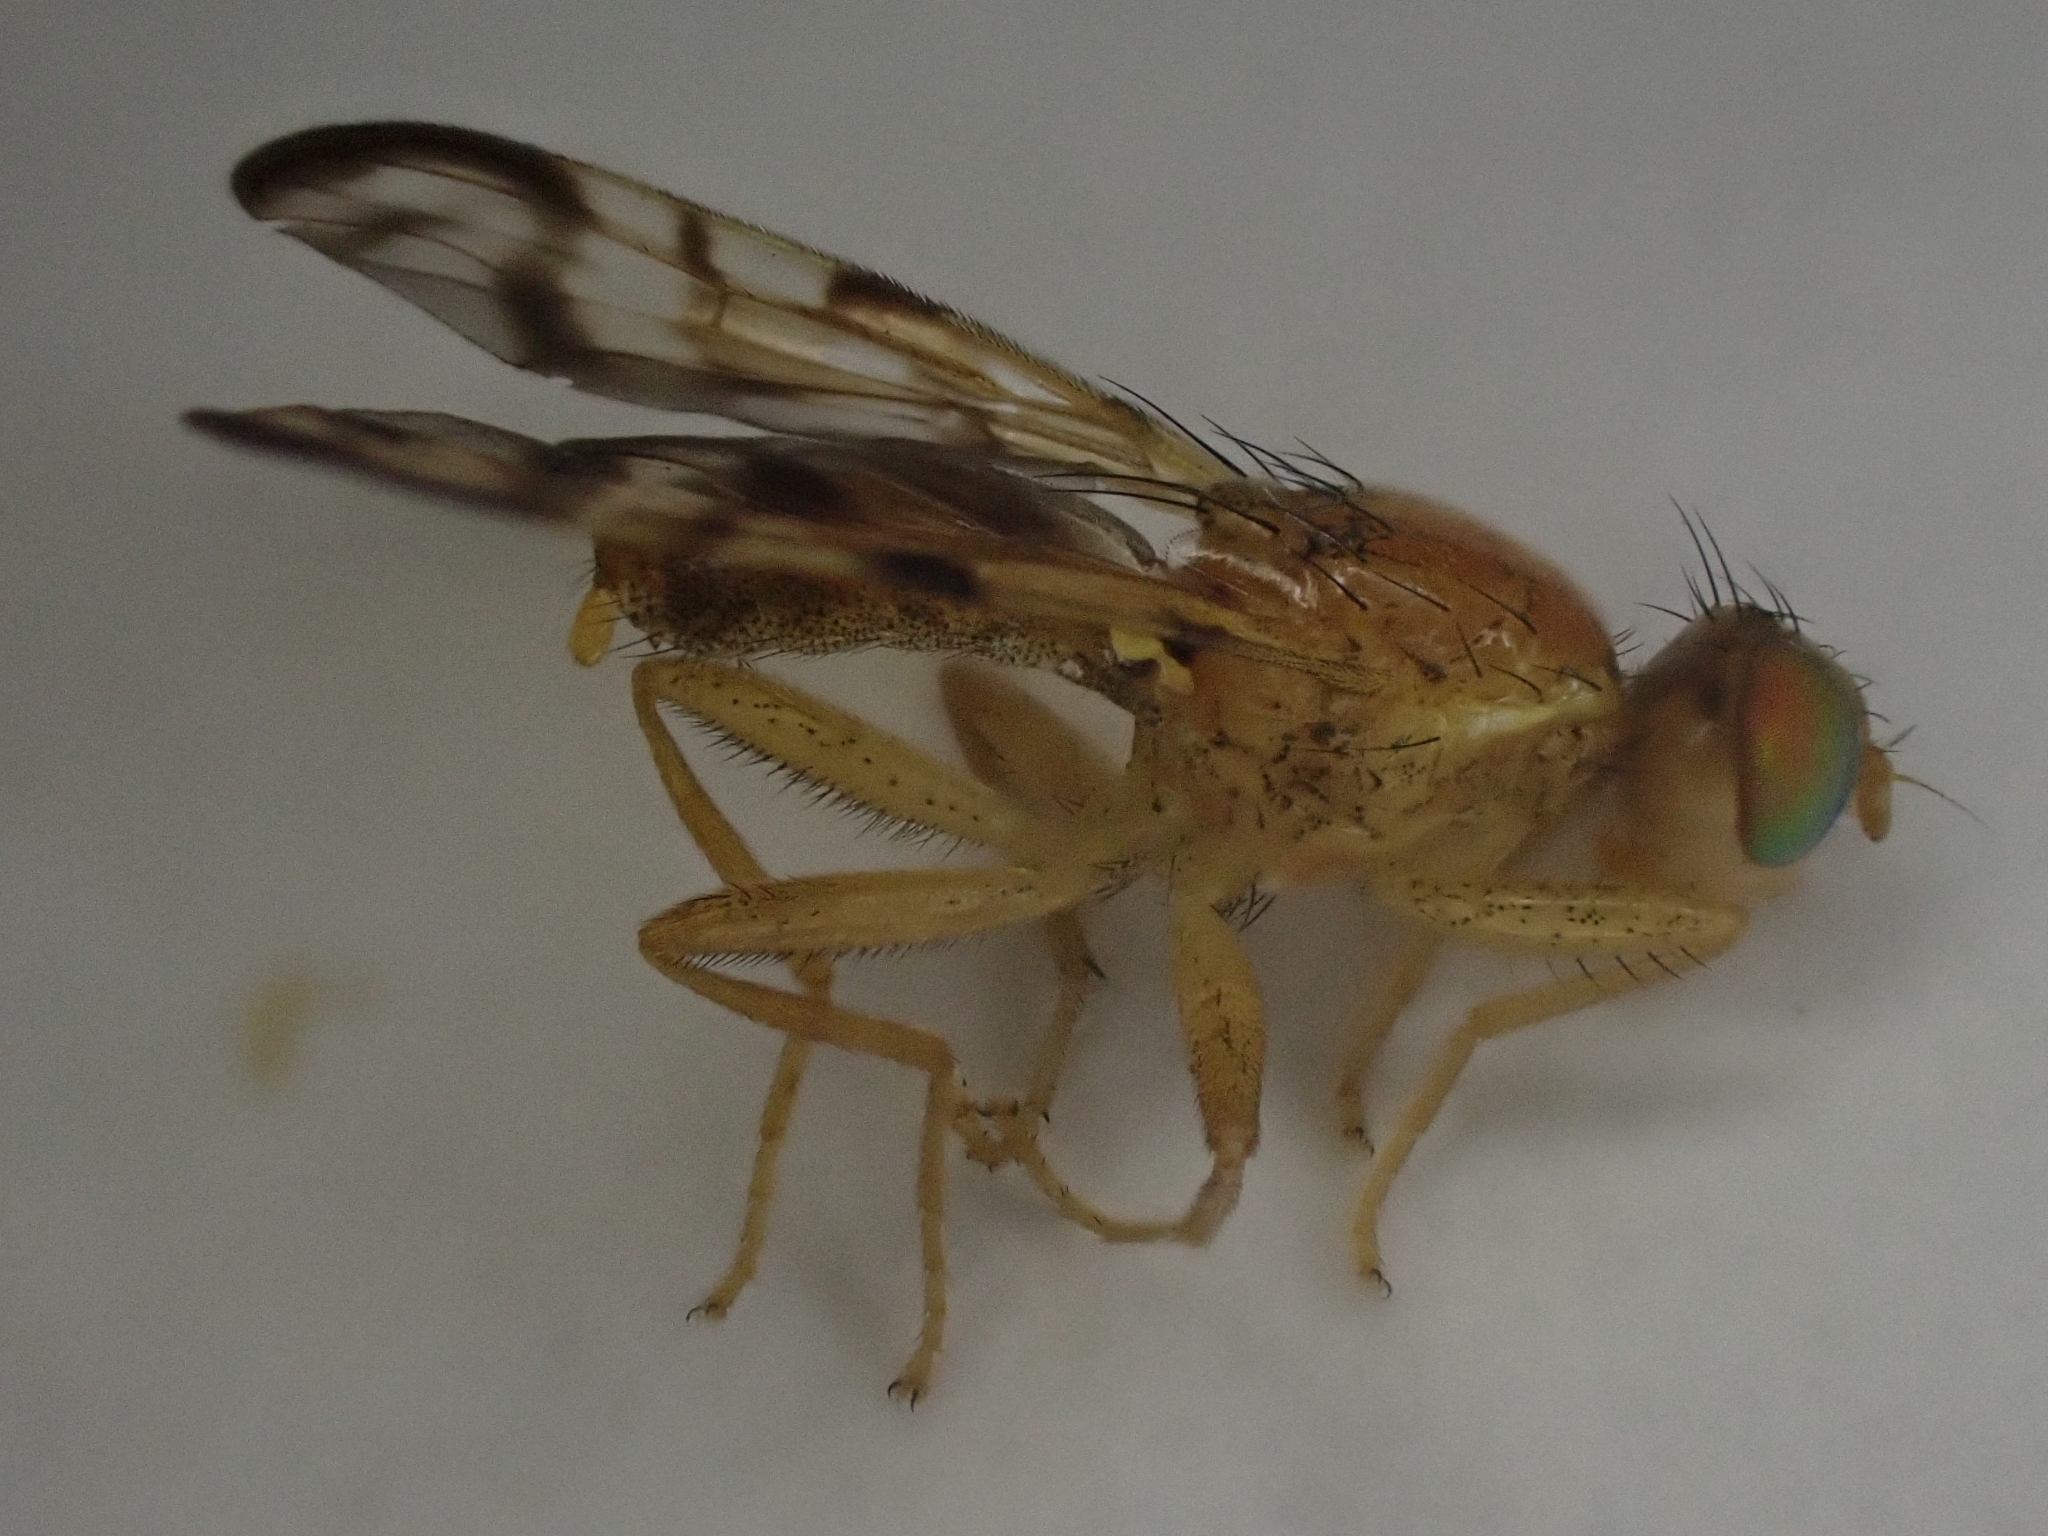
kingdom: Animalia
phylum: Arthropoda
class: Insecta
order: Diptera
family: Tephritidae
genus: Acidia
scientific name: Acidia cognata
